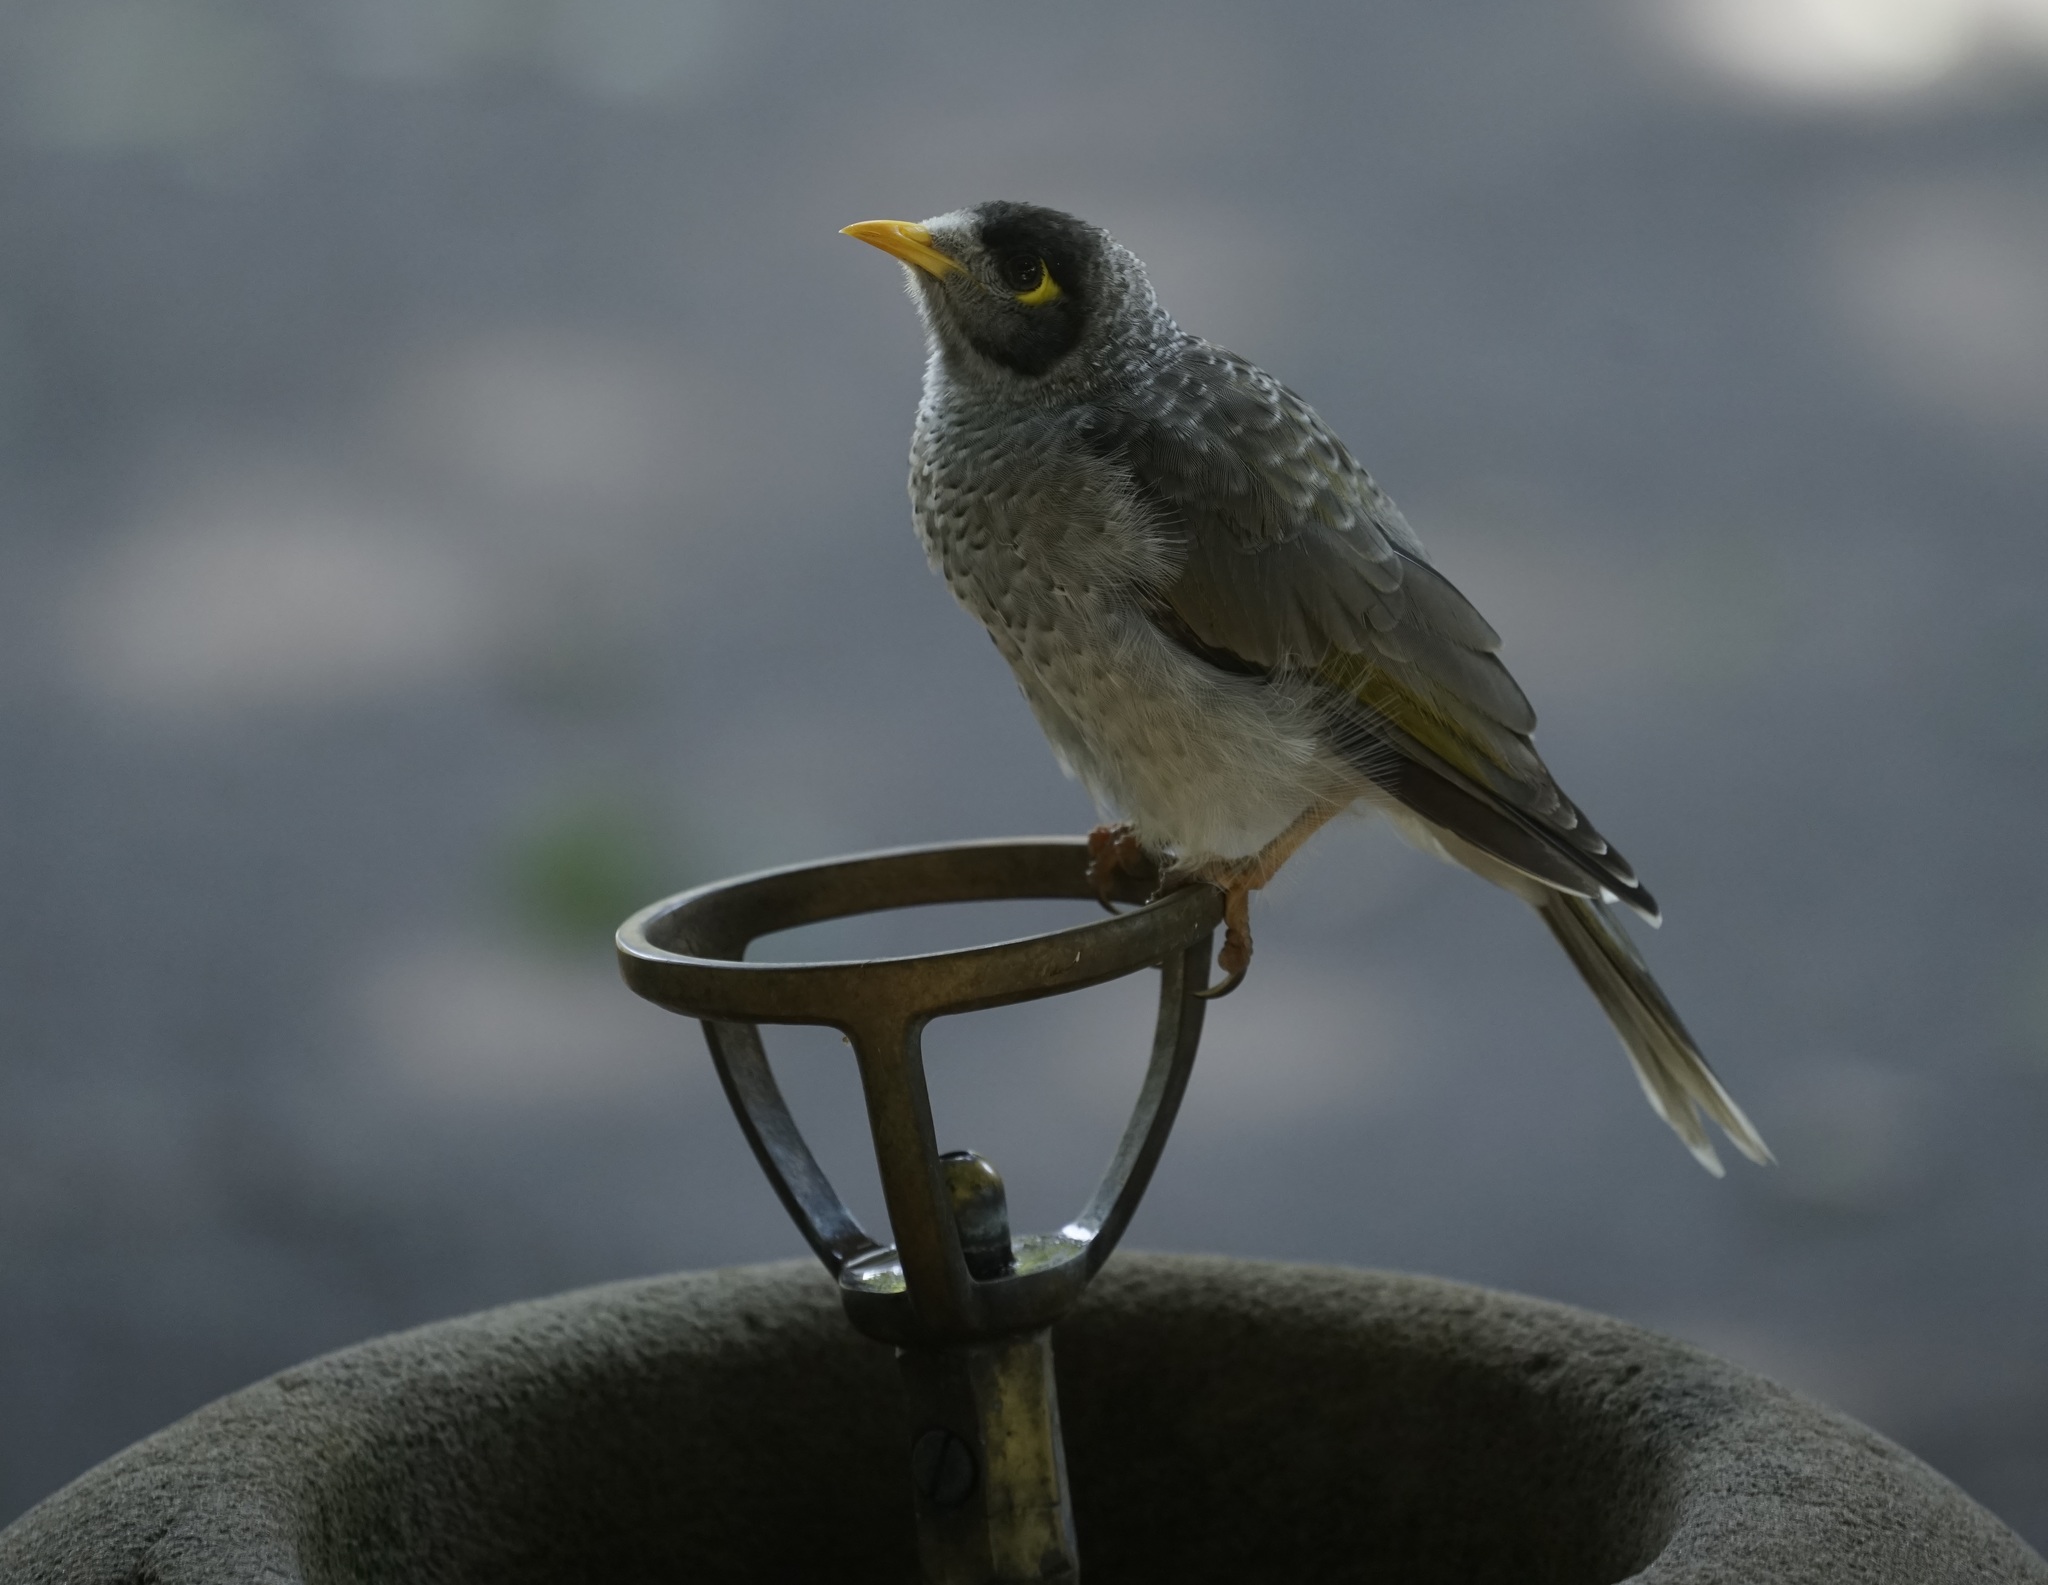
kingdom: Animalia
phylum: Chordata
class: Aves
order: Passeriformes
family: Meliphagidae
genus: Manorina
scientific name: Manorina melanocephala
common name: Noisy miner
